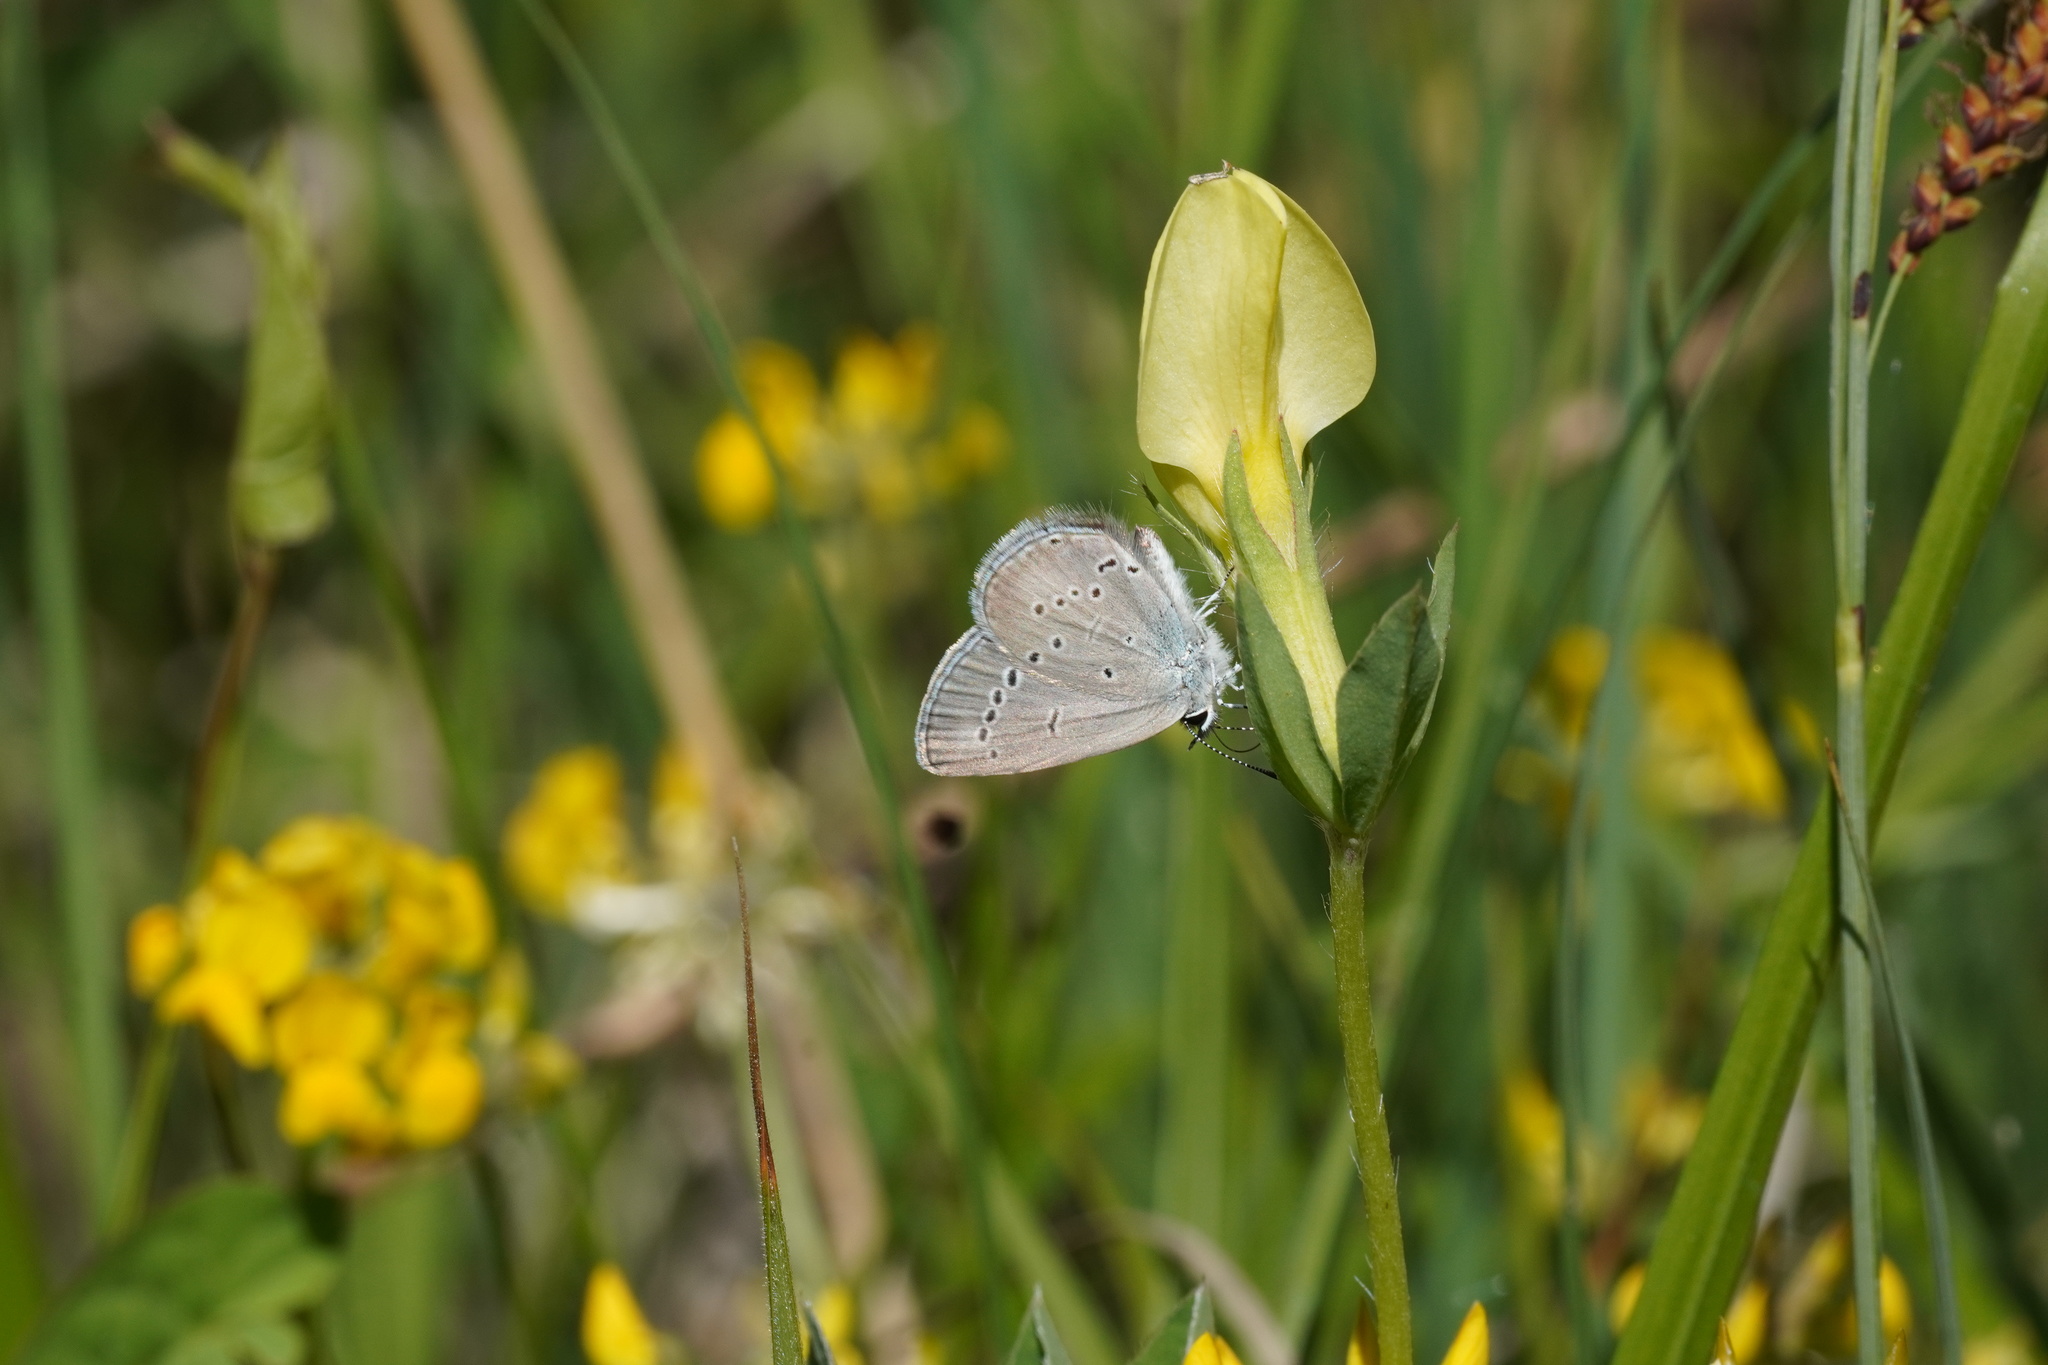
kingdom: Animalia
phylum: Arthropoda
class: Insecta
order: Lepidoptera
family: Lycaenidae
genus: Cupido
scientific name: Cupido minimus
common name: Small blue
